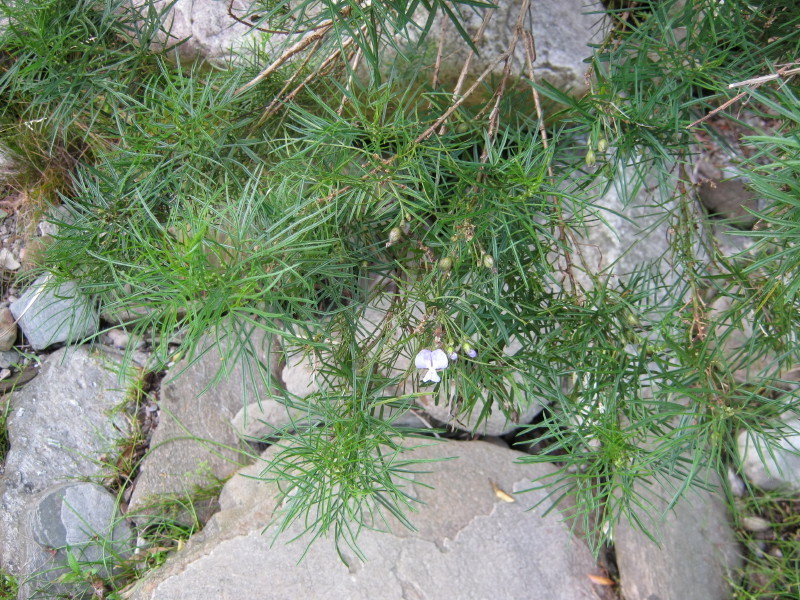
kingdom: Plantae
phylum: Tracheophyta
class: Magnoliopsida
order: Fabales
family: Fabaceae
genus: Psoralea
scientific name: Psoralea affinis
